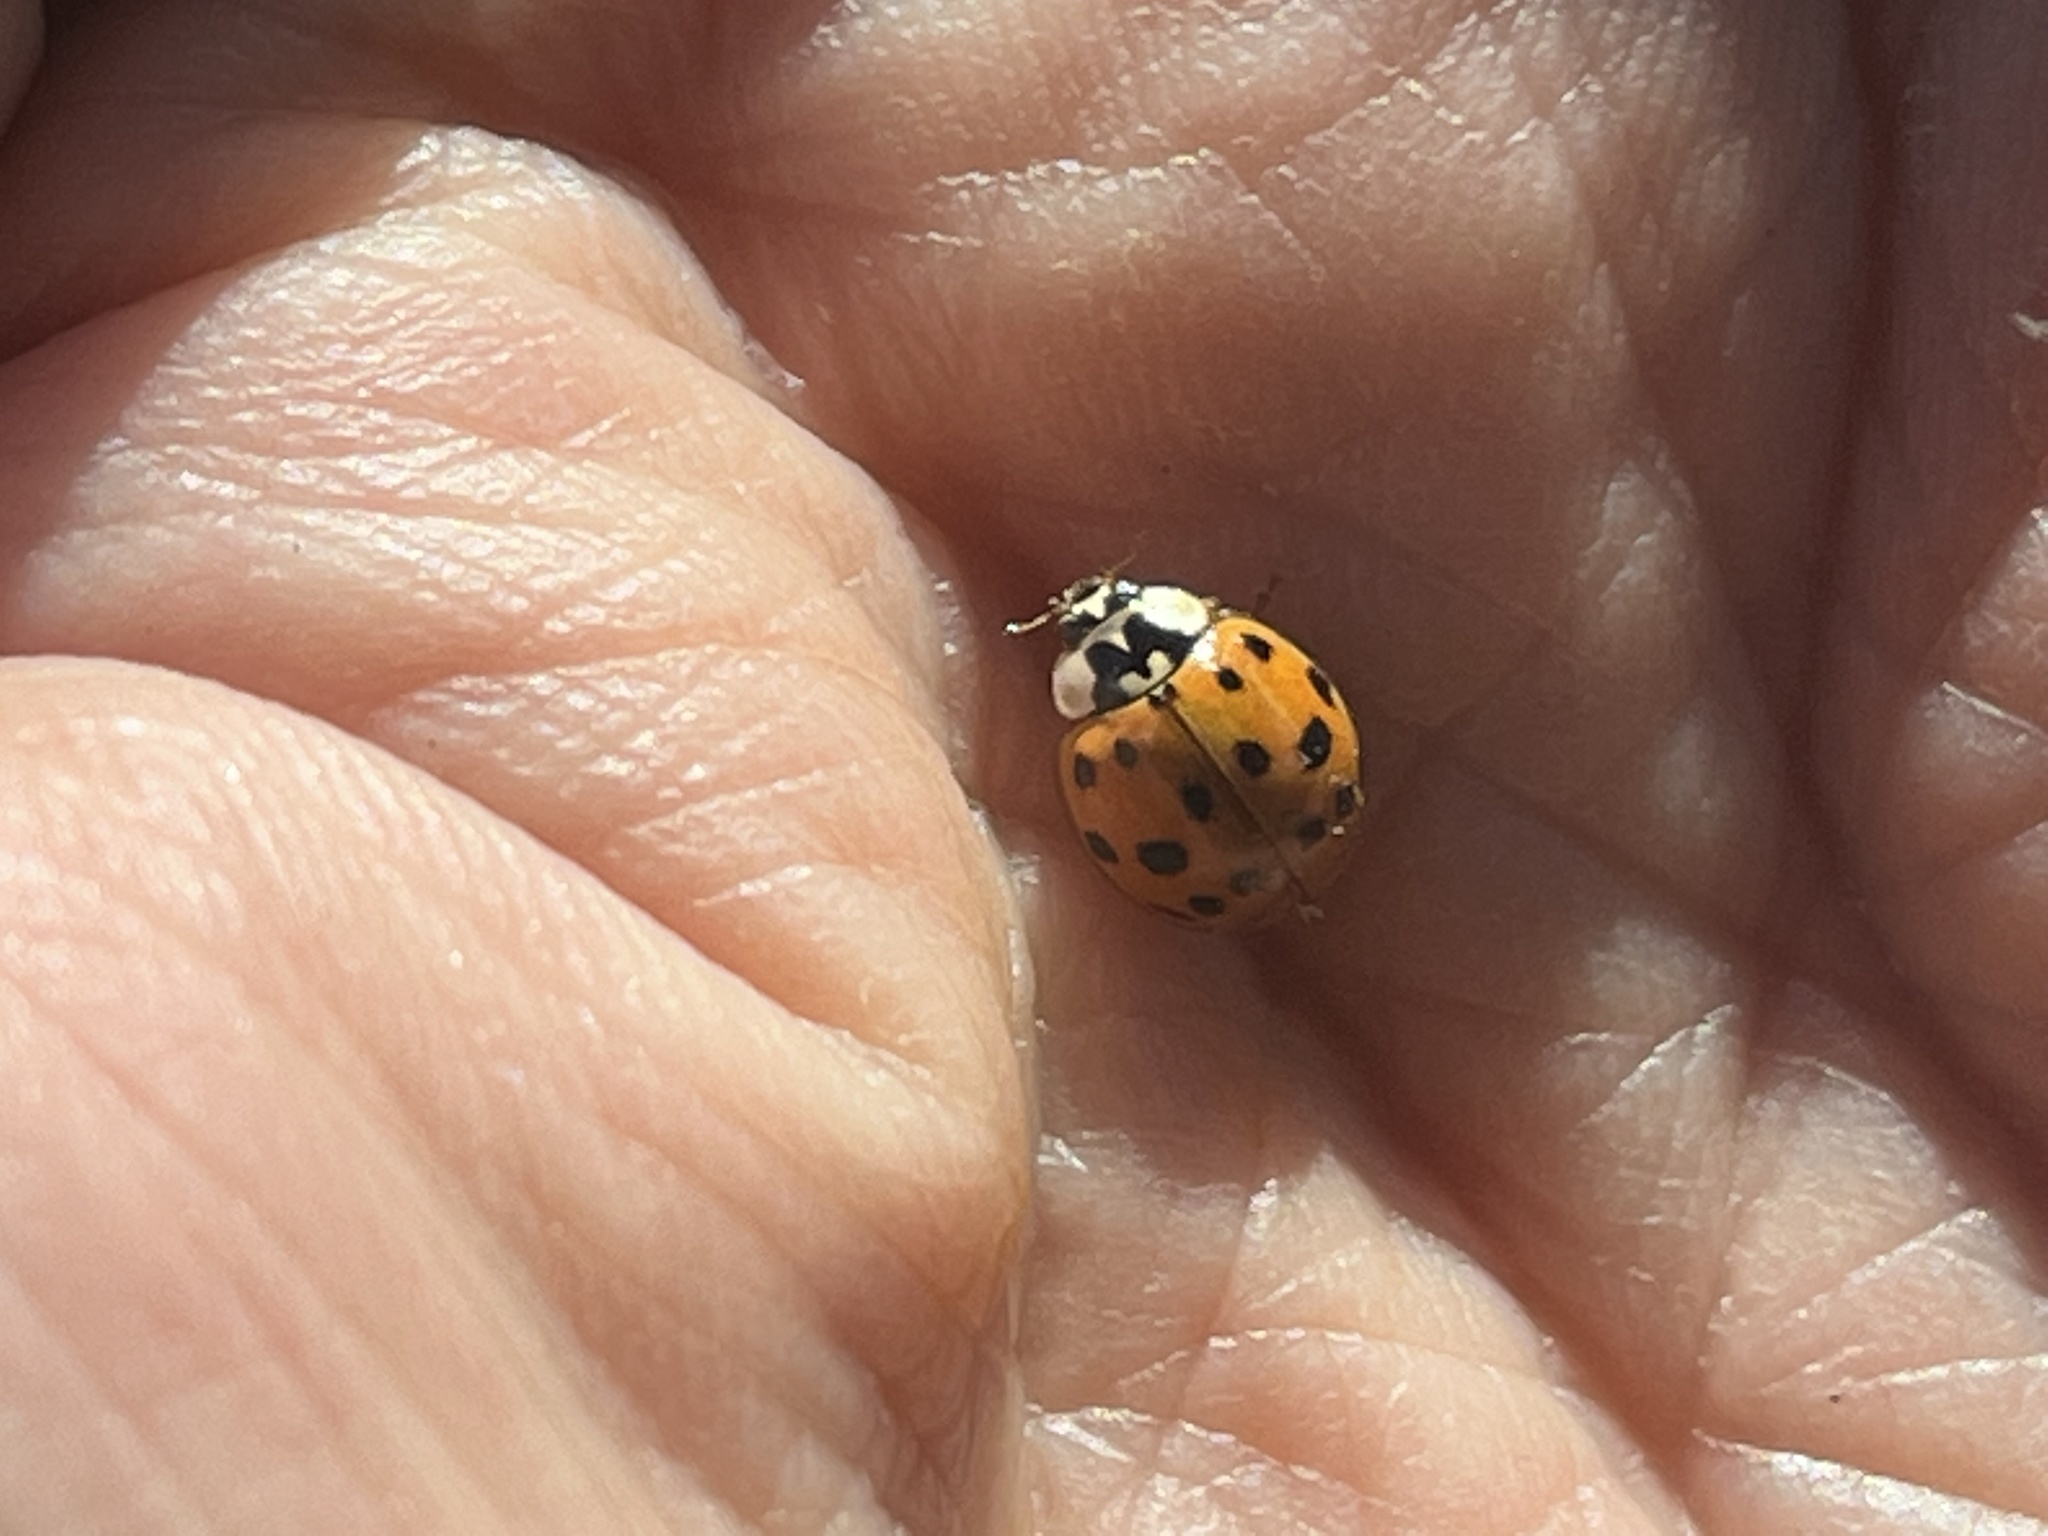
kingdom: Animalia
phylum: Arthropoda
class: Insecta
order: Coleoptera
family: Coccinellidae
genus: Harmonia
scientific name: Harmonia axyridis
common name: Harlequin ladybird
